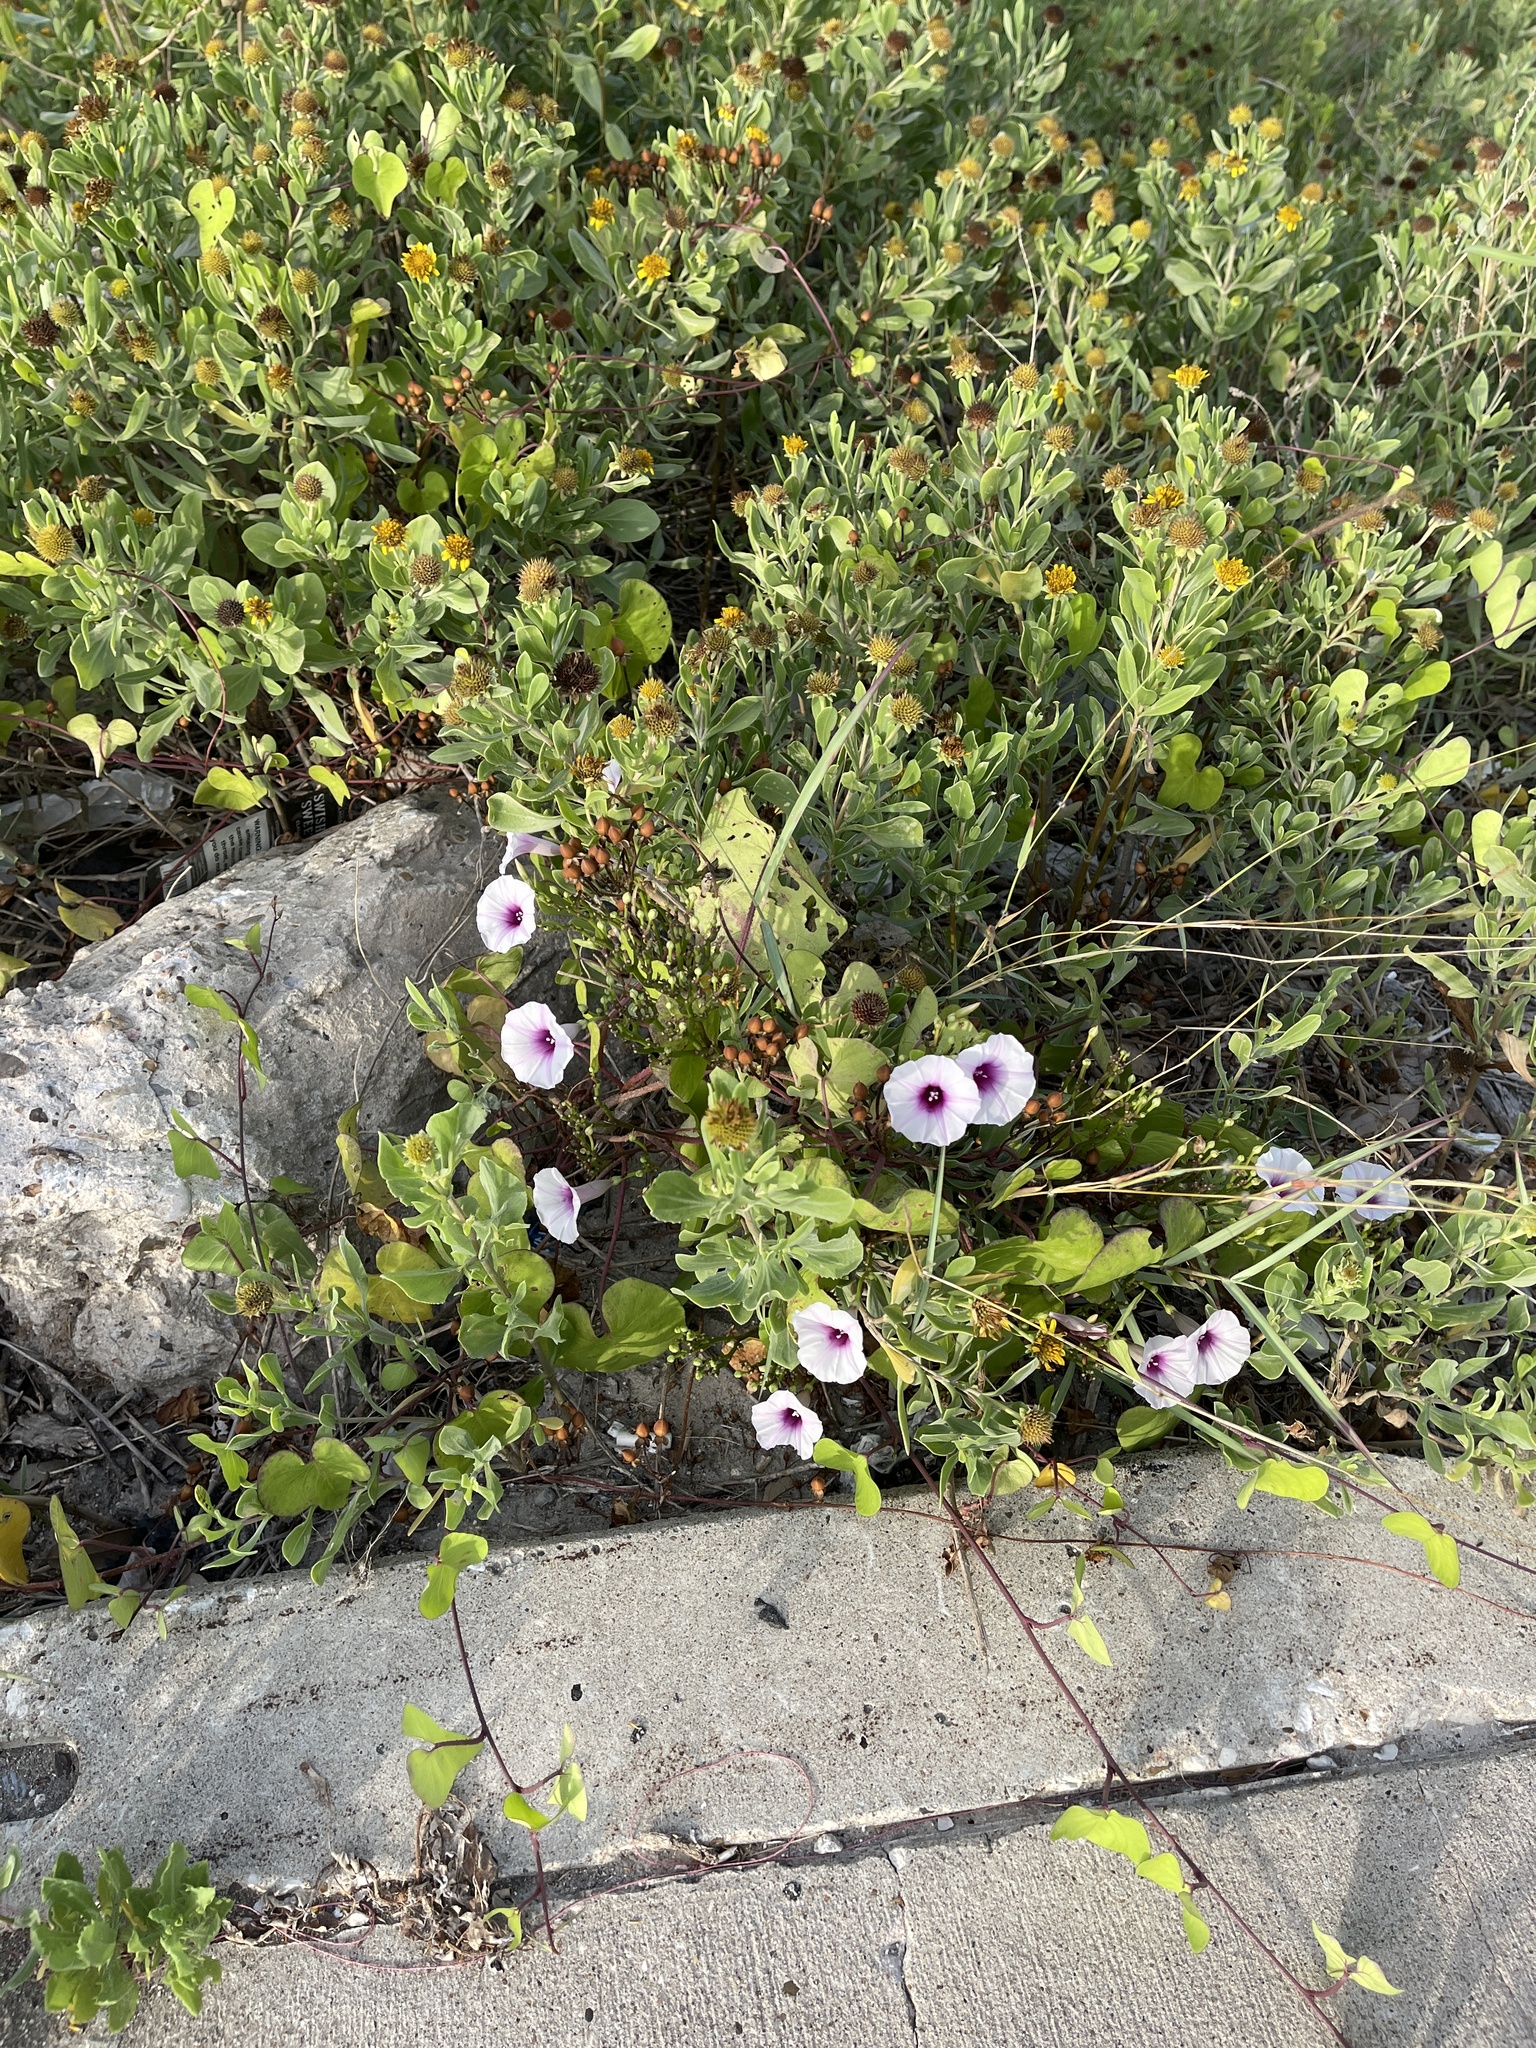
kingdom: Plantae
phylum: Tracheophyta
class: Magnoliopsida
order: Solanales
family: Convolvulaceae
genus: Ipomoea
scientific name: Ipomoea amnicola
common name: Redcenter morning-glory
